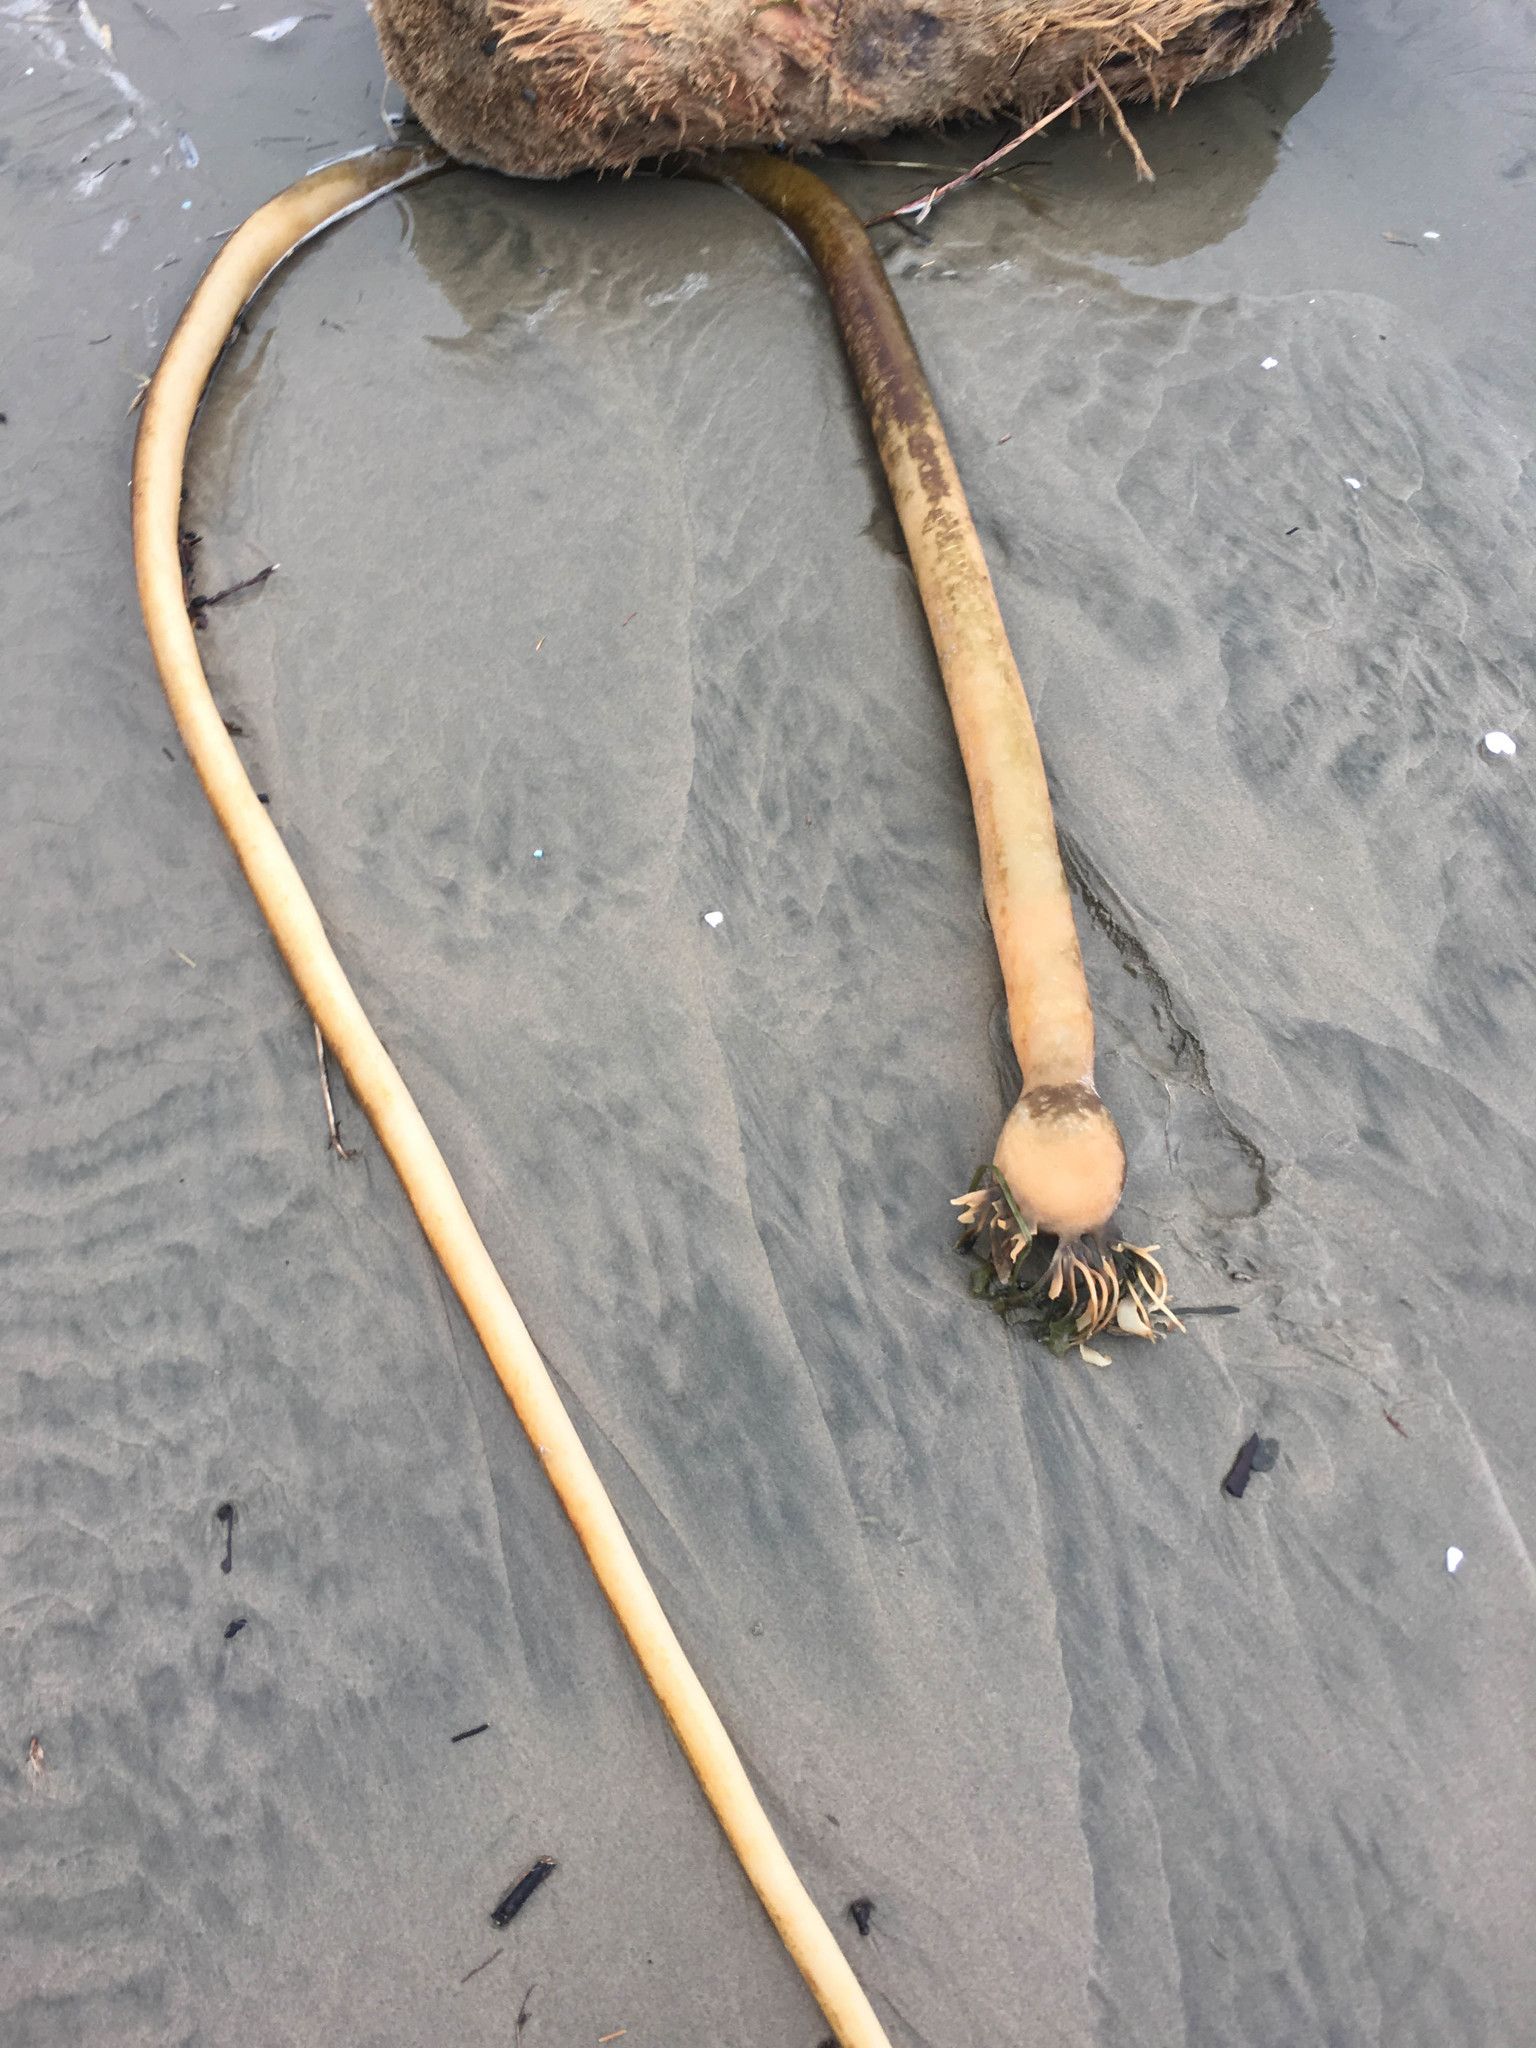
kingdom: Chromista
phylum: Ochrophyta
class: Phaeophyceae
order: Laminariales
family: Laminariaceae
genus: Nereocystis
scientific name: Nereocystis luetkeana
